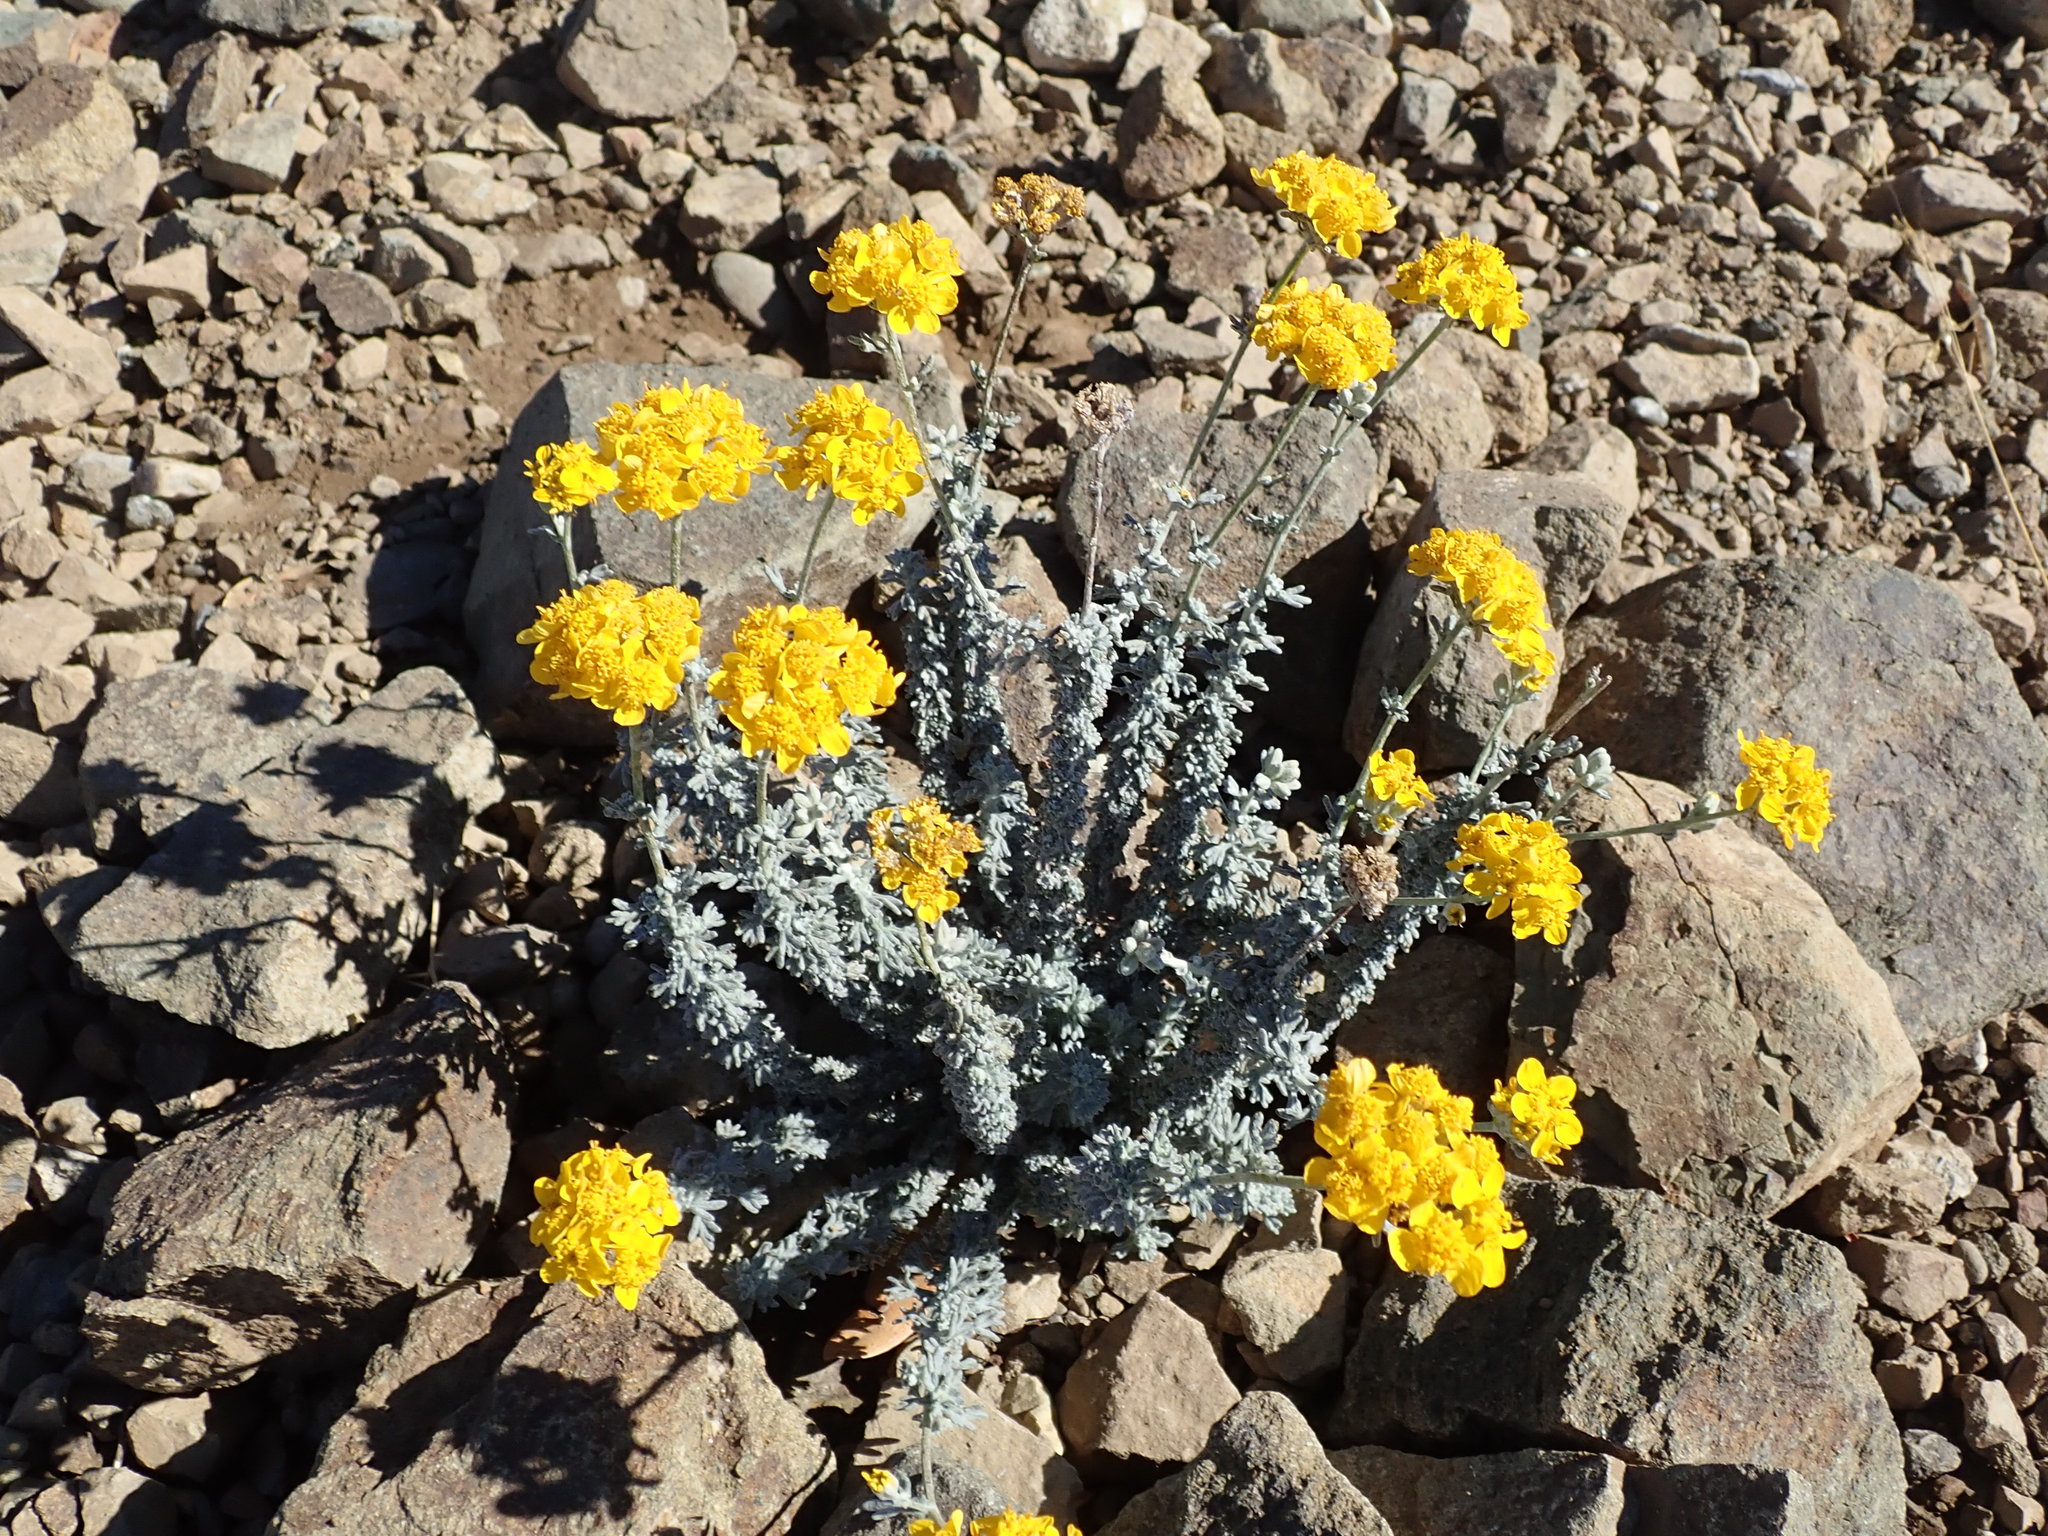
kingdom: Plantae
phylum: Tracheophyta
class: Magnoliopsida
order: Asterales
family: Asteraceae
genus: Eriophyllum
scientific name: Eriophyllum confertiflorum
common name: Golden-yarrow
